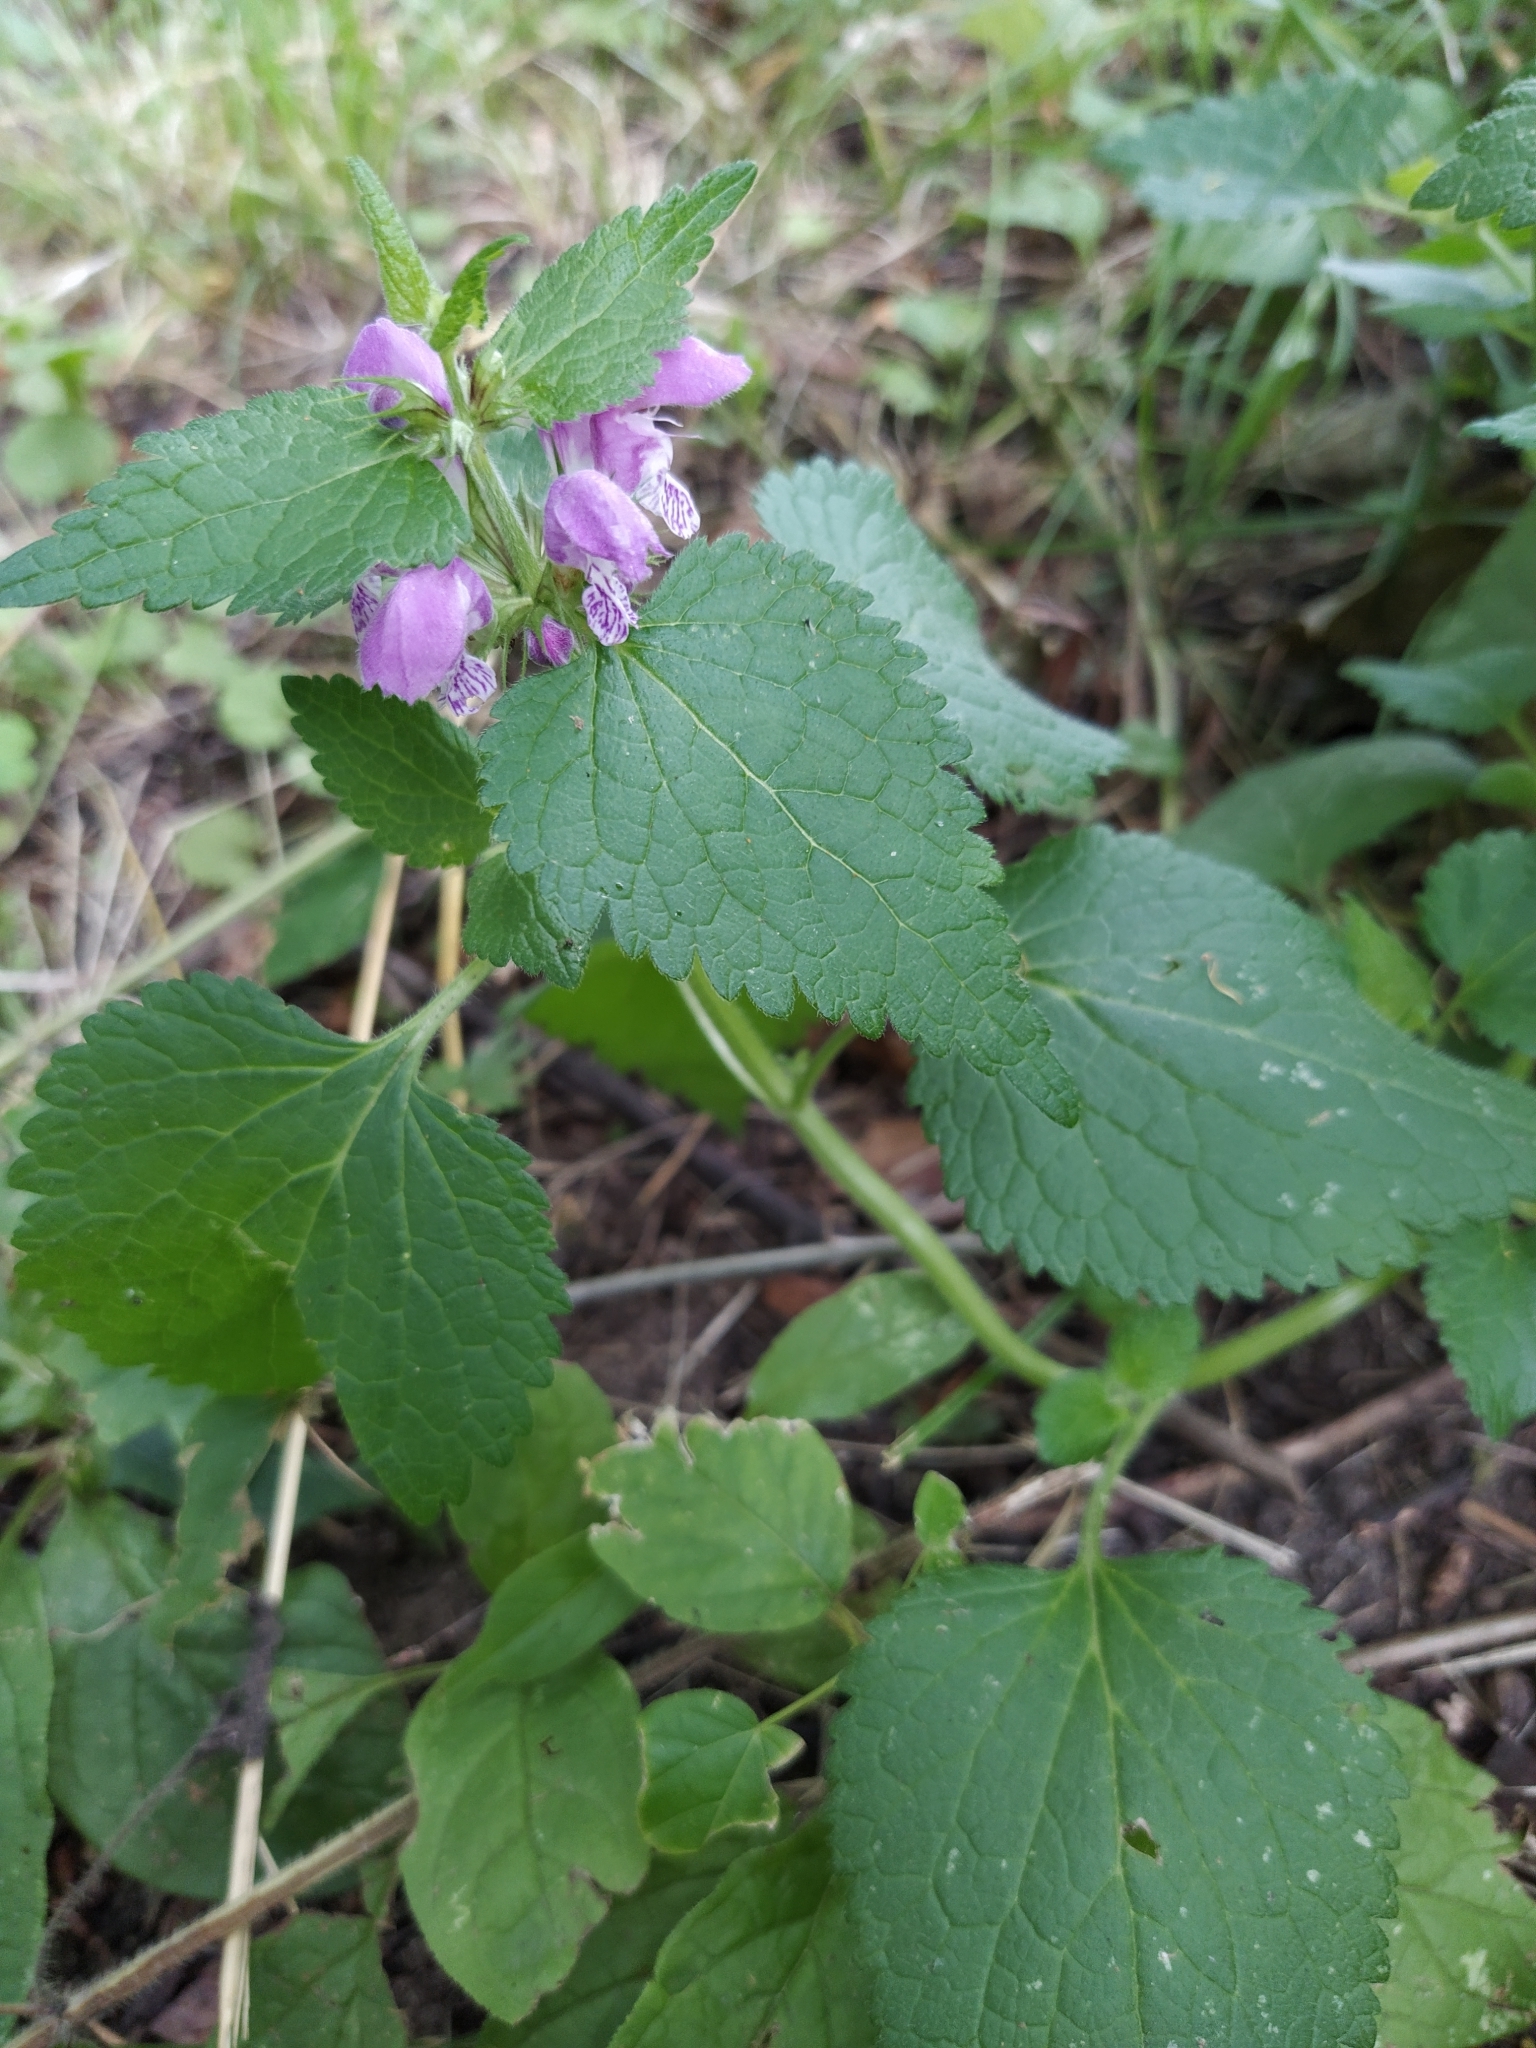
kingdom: Plantae
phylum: Tracheophyta
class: Magnoliopsida
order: Lamiales
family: Lamiaceae
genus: Lamium
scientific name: Lamium maculatum
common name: Spotted dead-nettle
